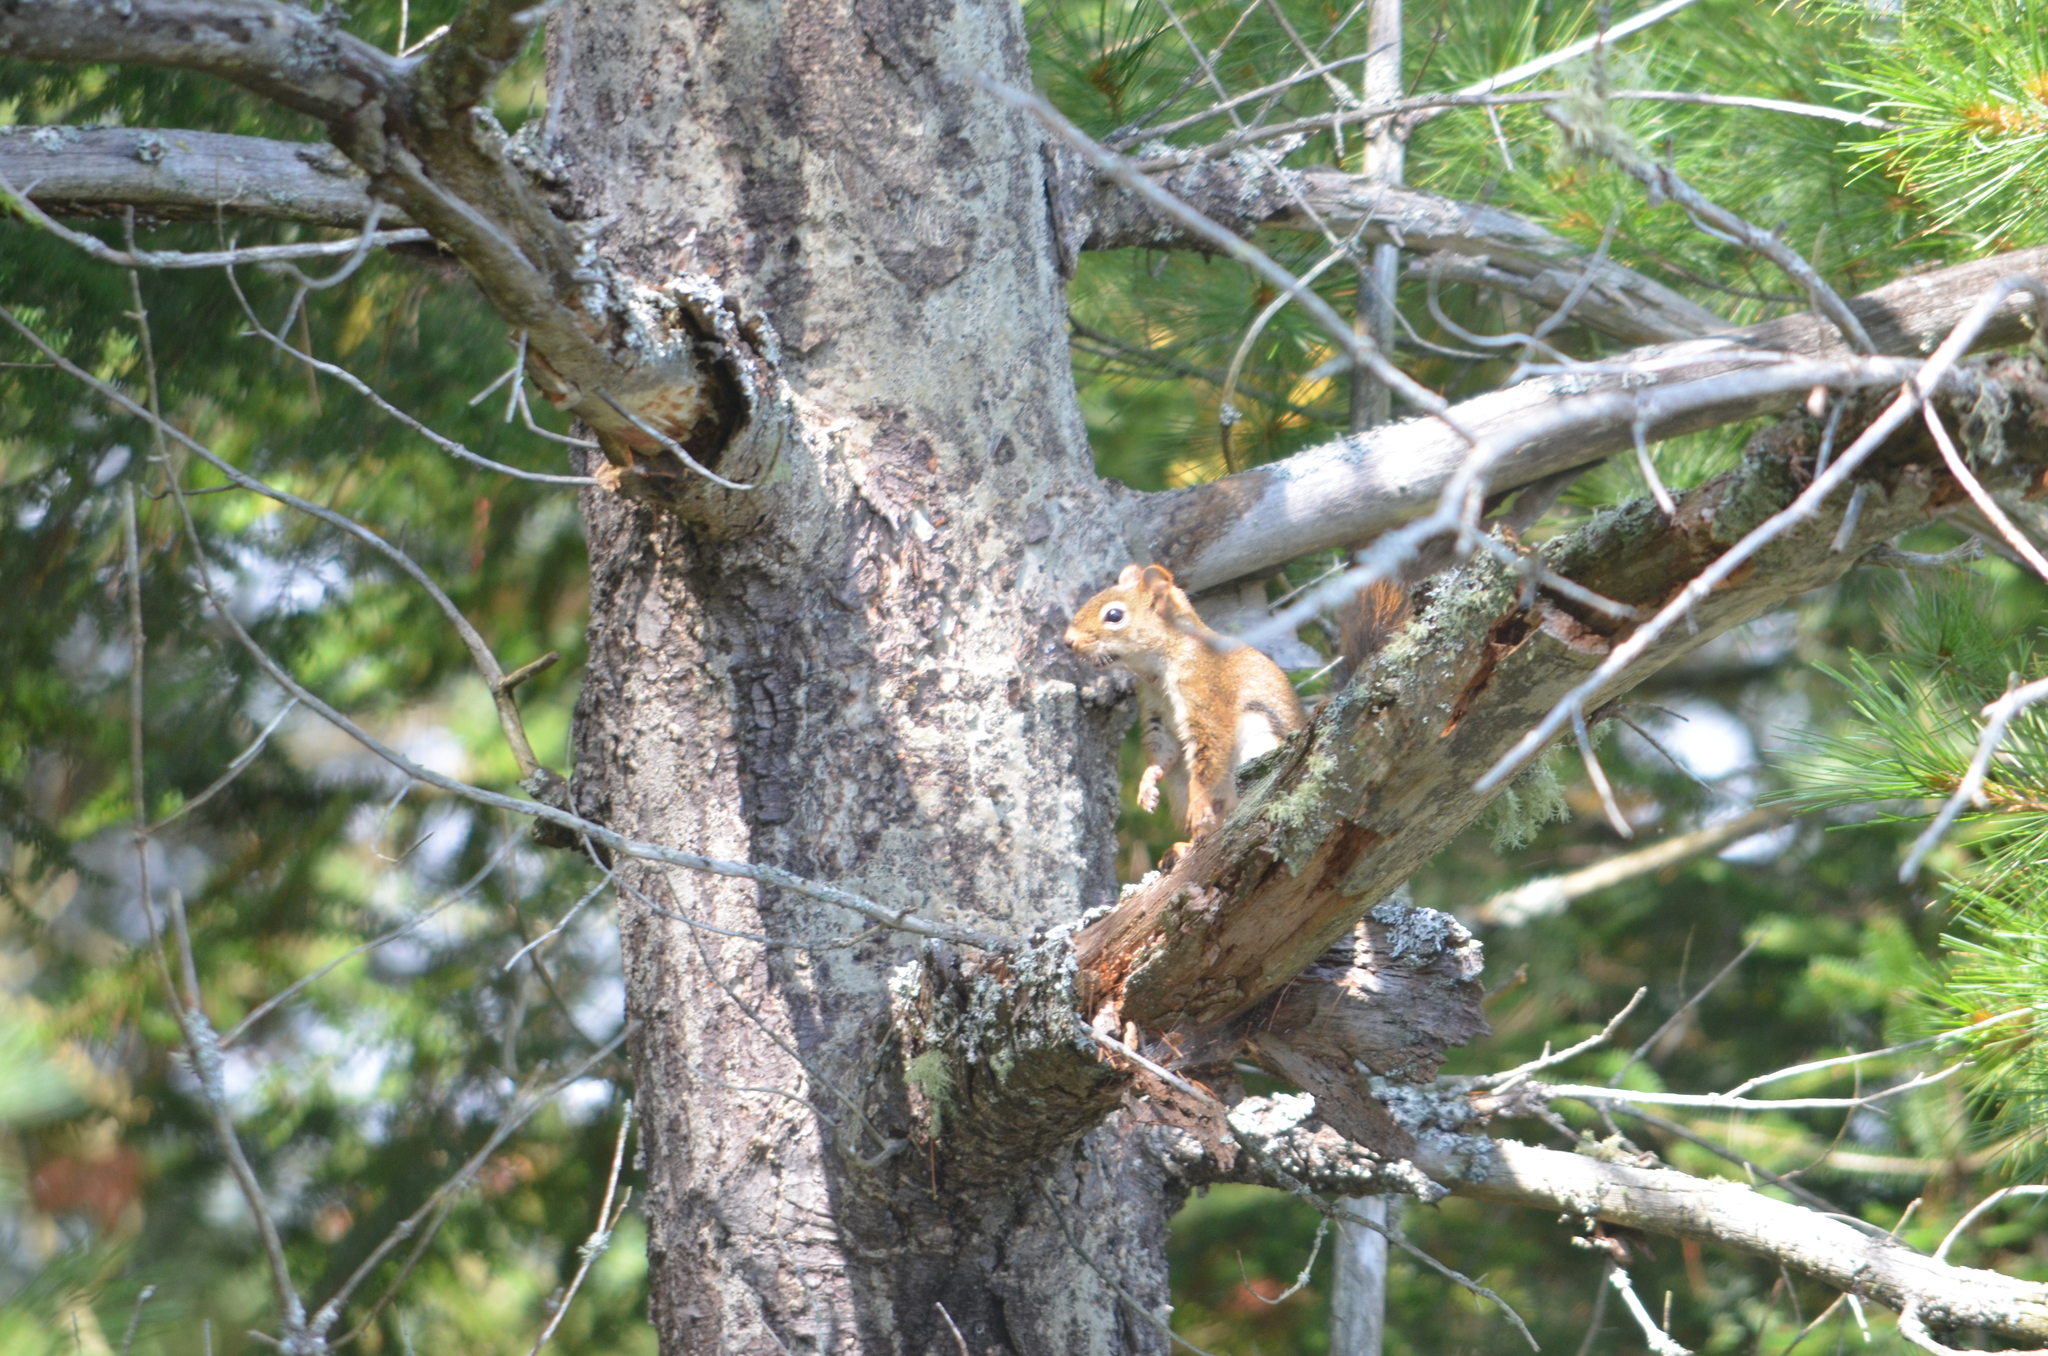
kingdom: Animalia
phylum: Chordata
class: Mammalia
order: Rodentia
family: Sciuridae
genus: Tamiasciurus
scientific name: Tamiasciurus hudsonicus
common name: Red squirrel
